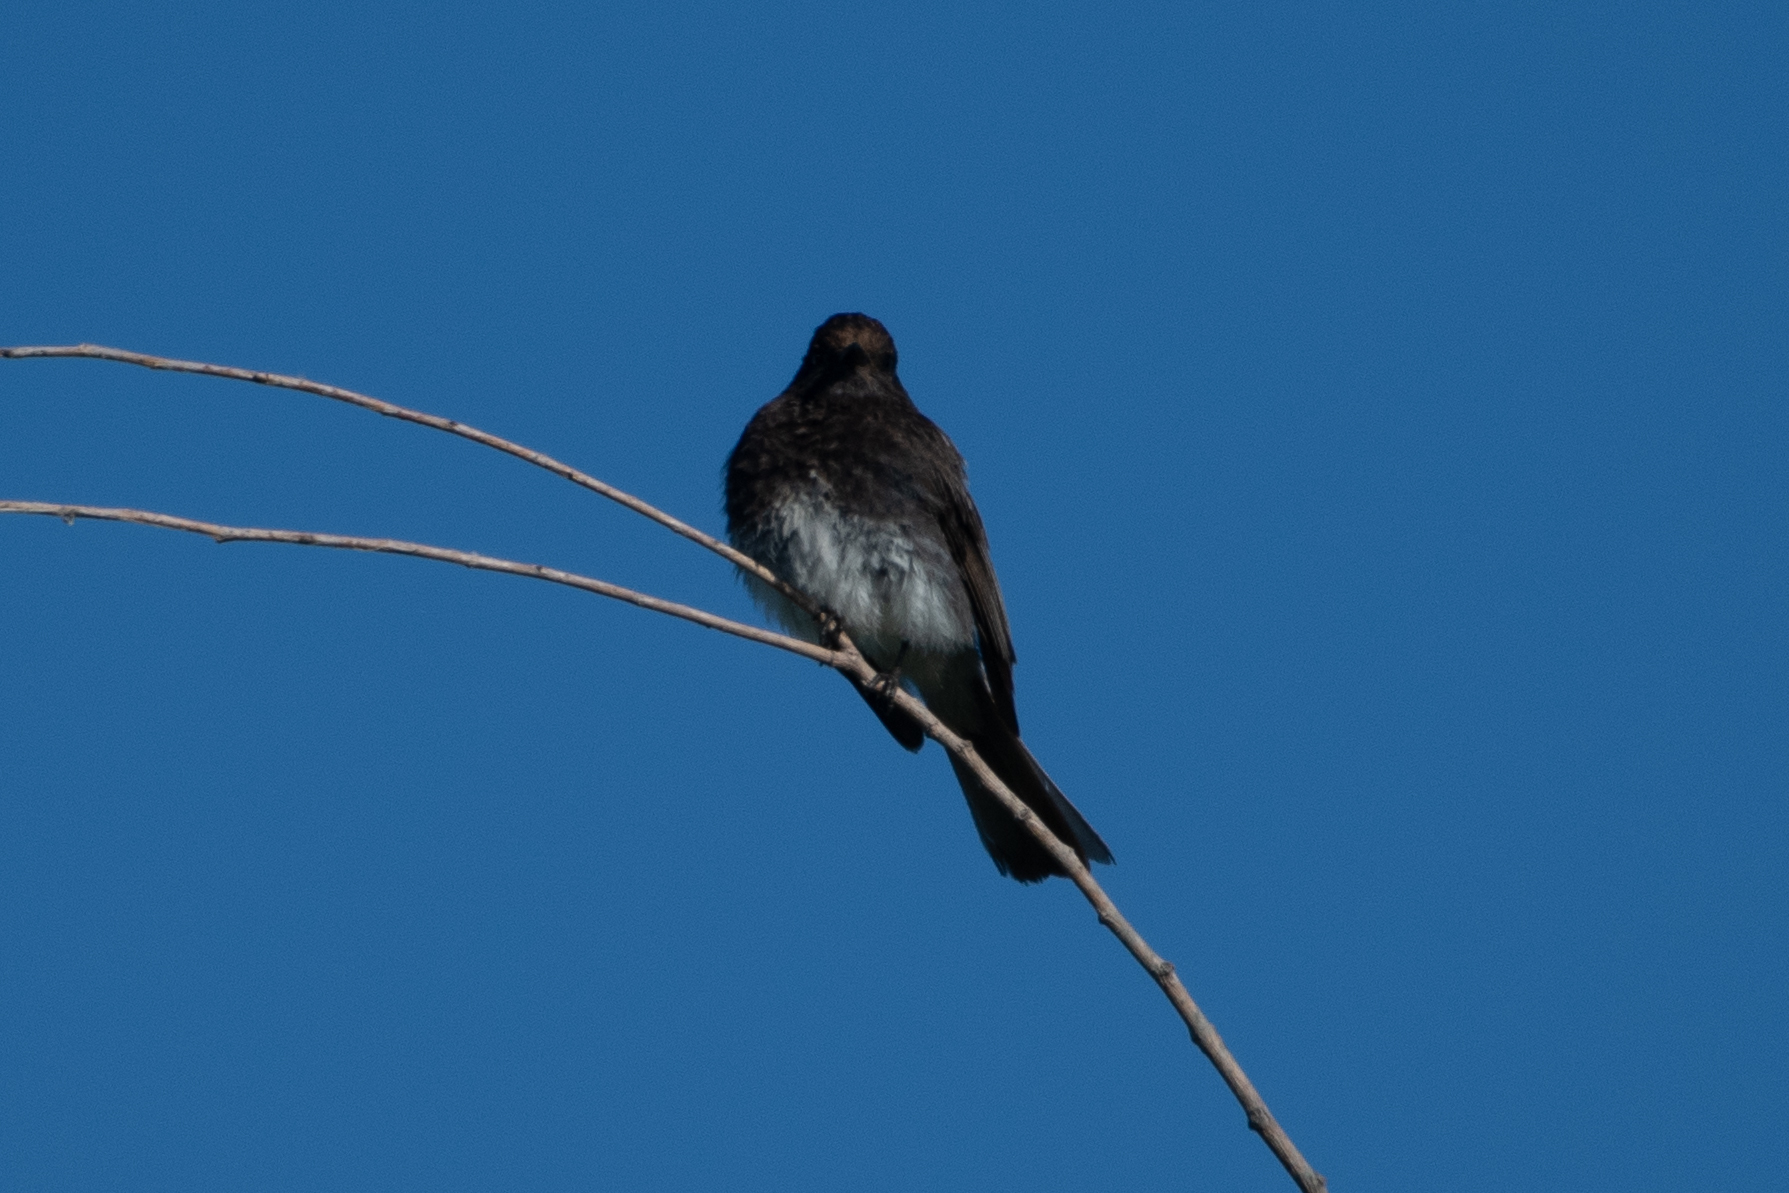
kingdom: Animalia
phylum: Chordata
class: Aves
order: Passeriformes
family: Tyrannidae
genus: Sayornis
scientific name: Sayornis nigricans
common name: Black phoebe
